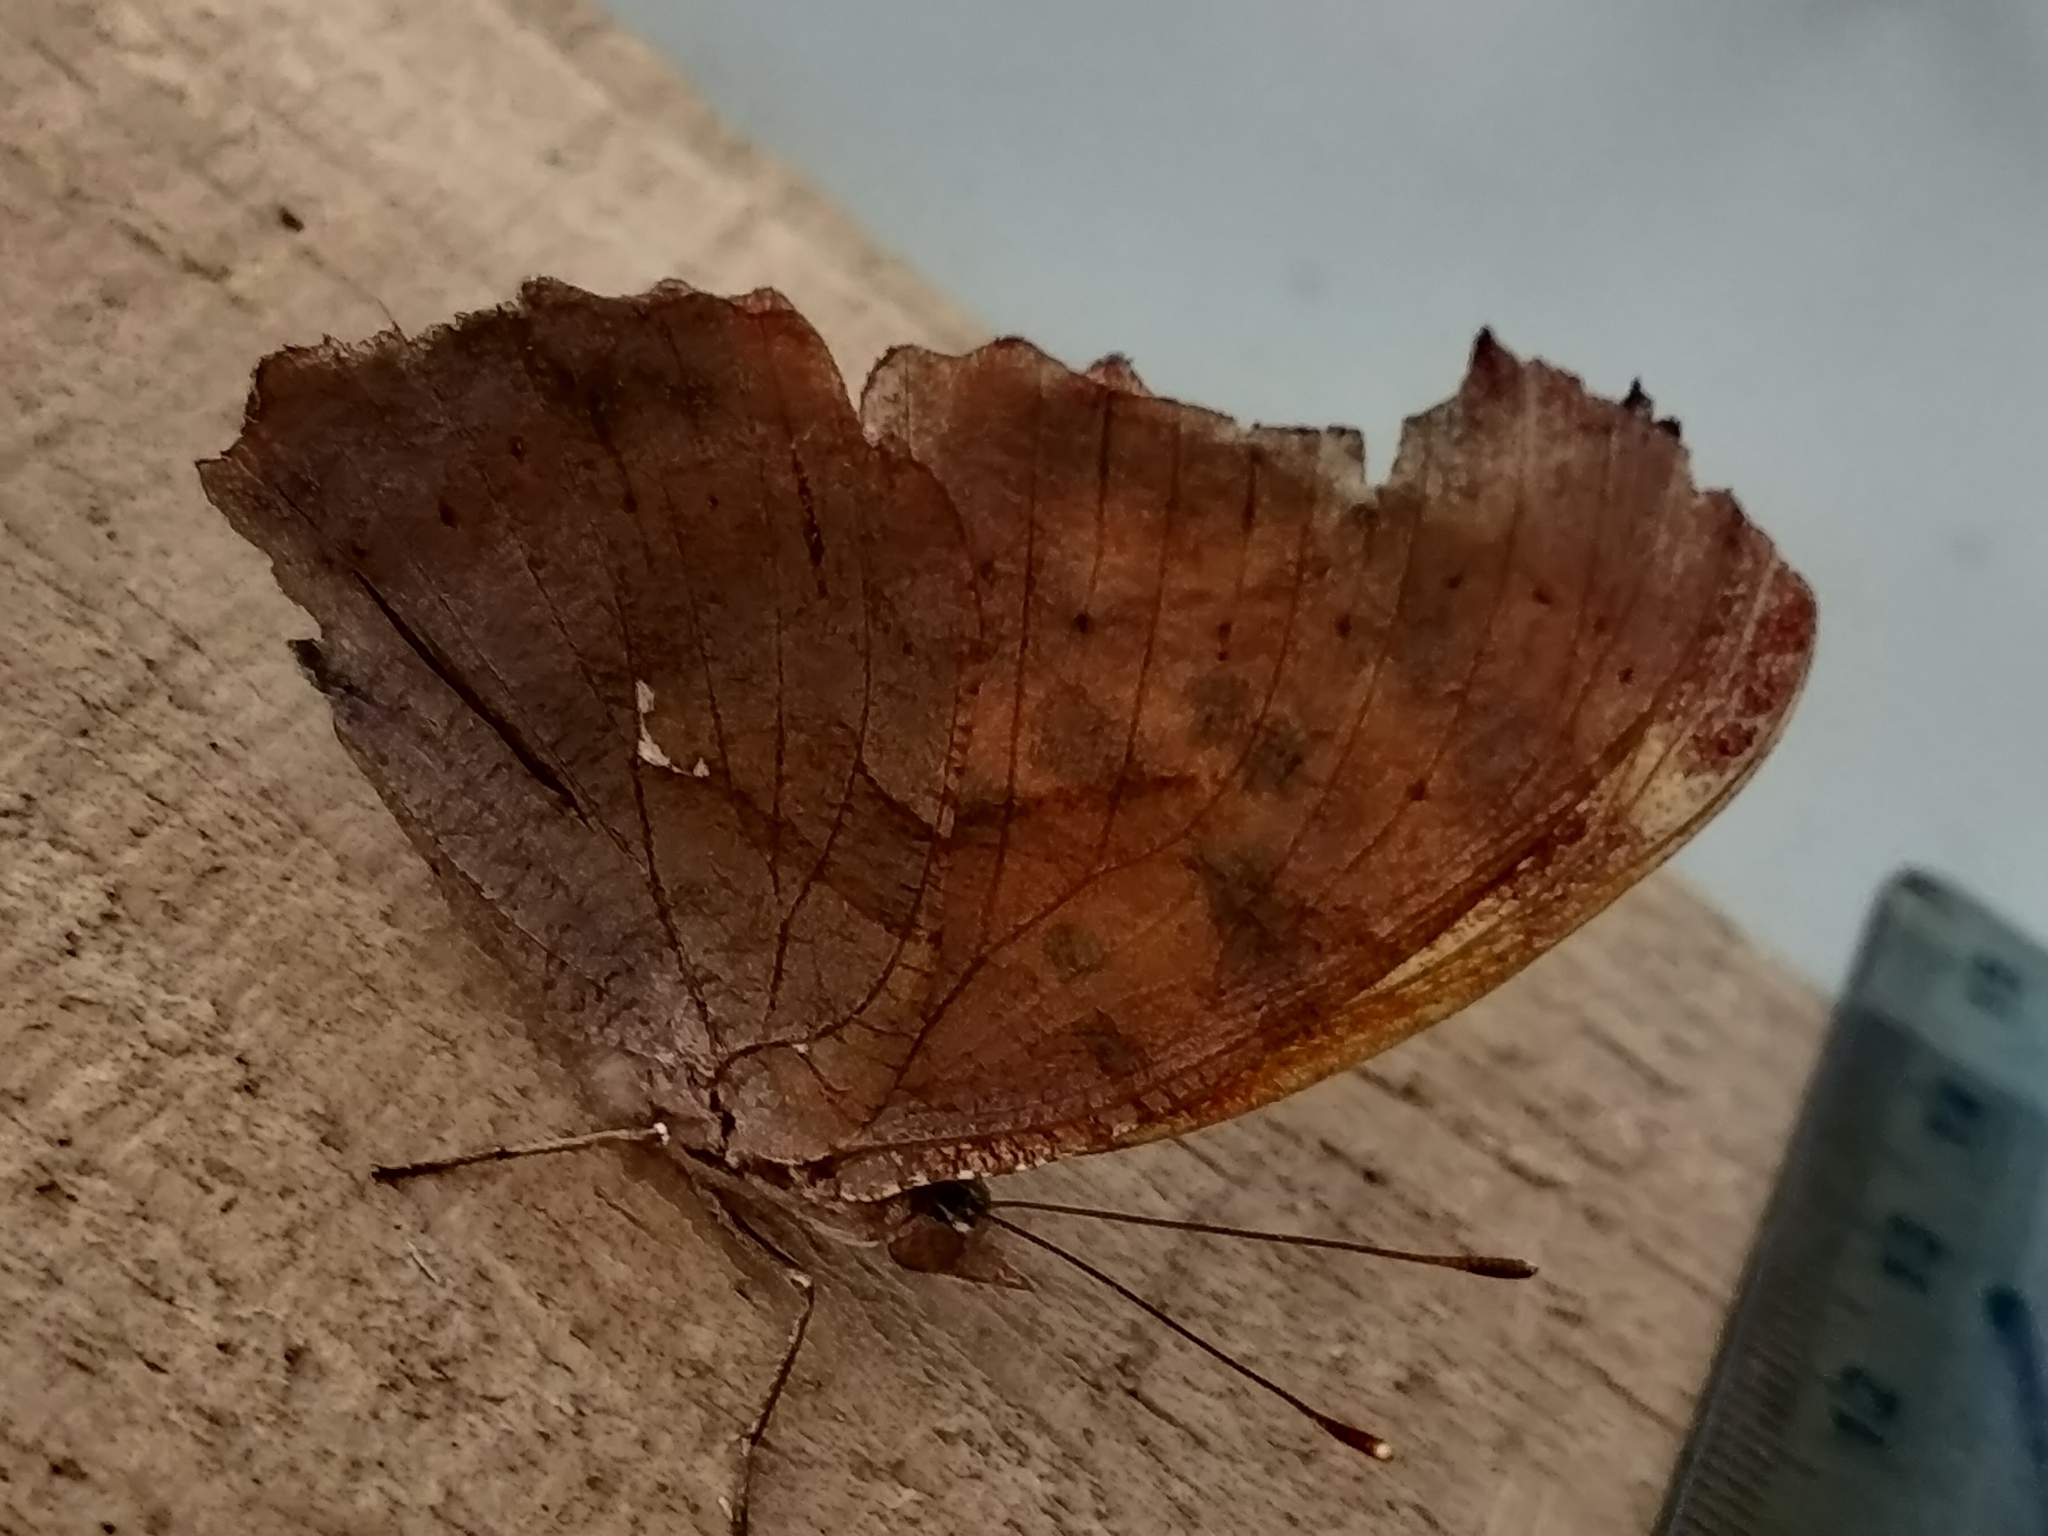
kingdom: Animalia
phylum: Arthropoda
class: Insecta
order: Lepidoptera
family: Nymphalidae
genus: Polygonia
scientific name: Polygonia interrogationis
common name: Question mark
